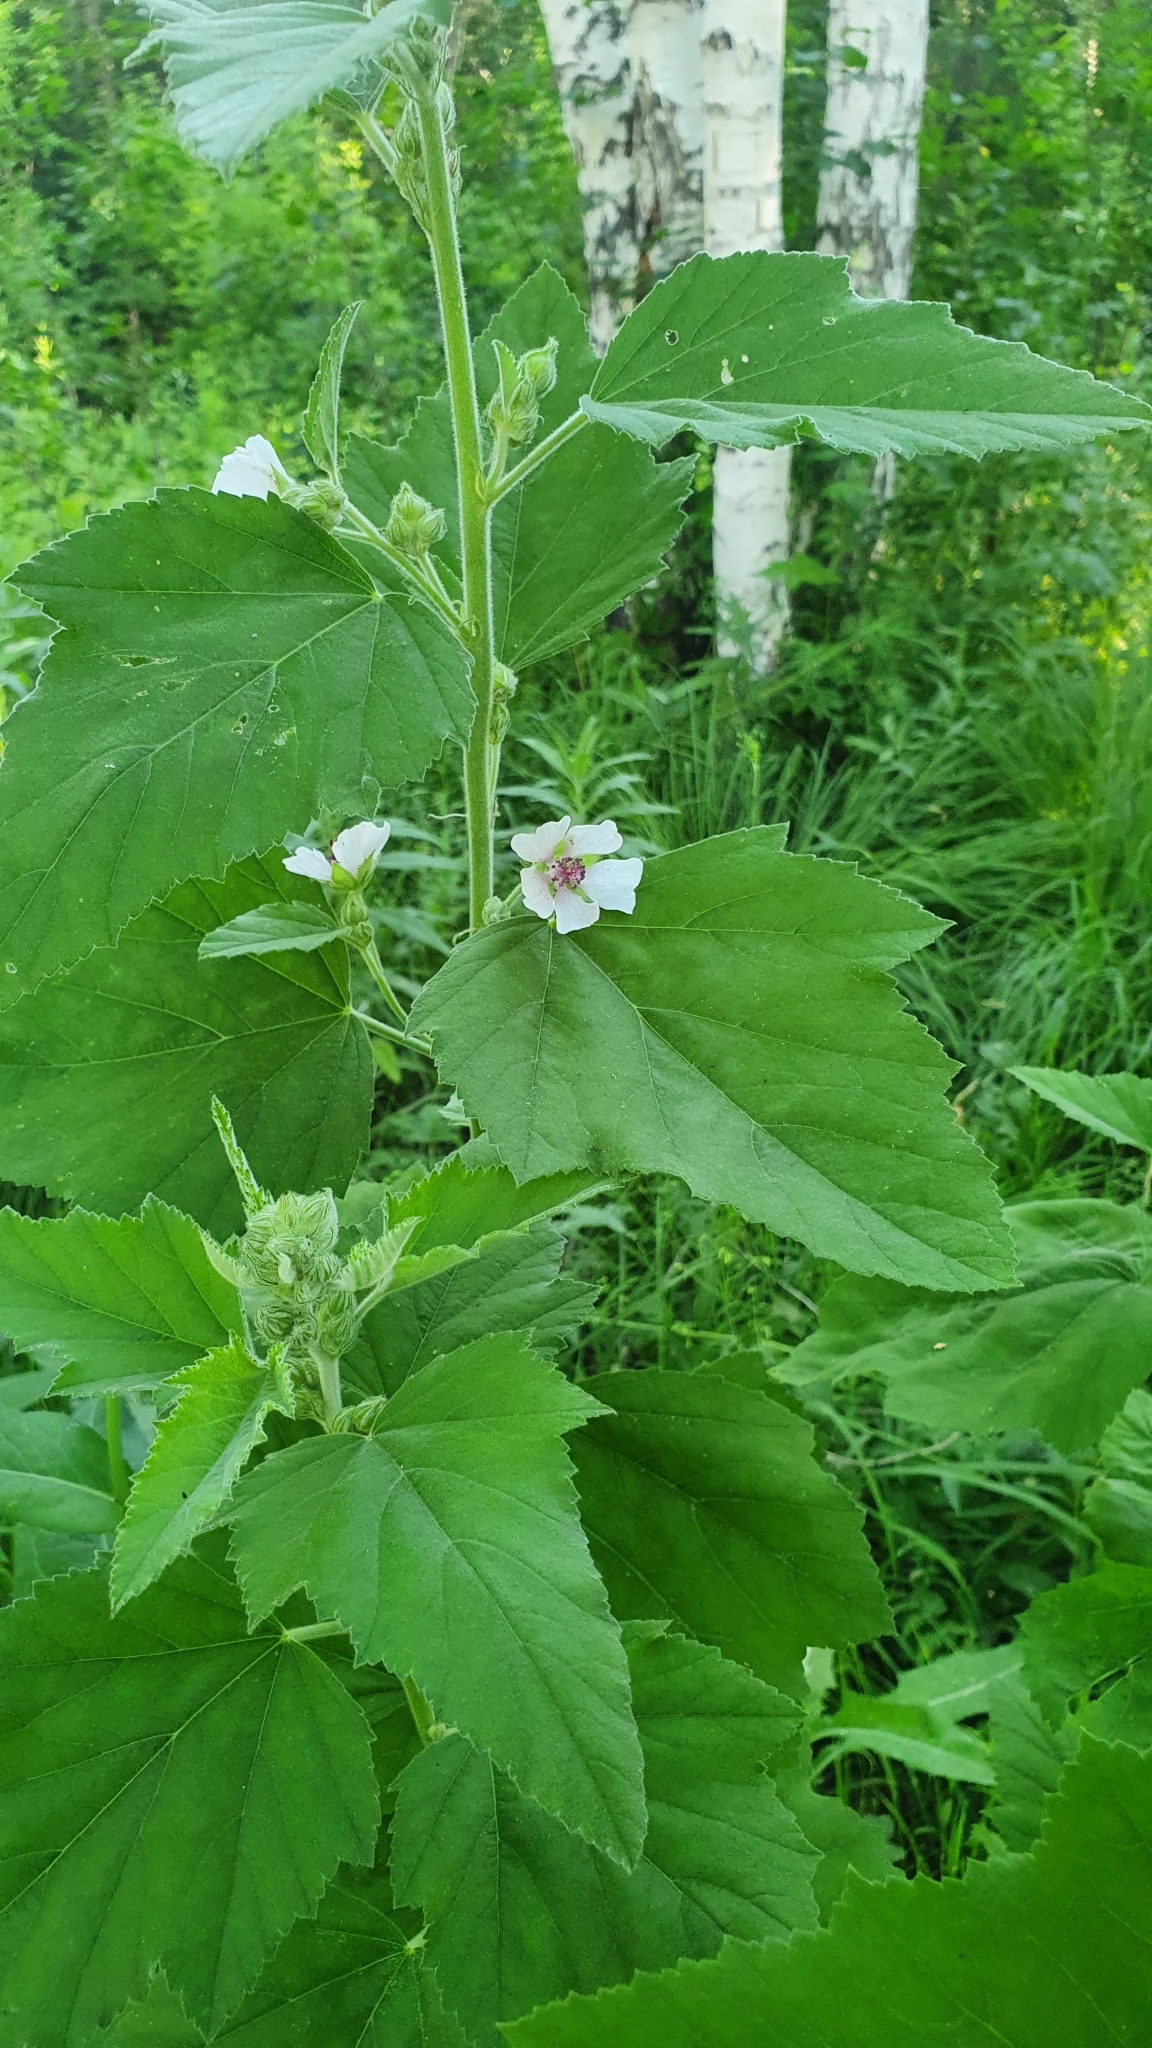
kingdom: Plantae
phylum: Tracheophyta
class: Magnoliopsida
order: Malvales
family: Malvaceae
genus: Althaea
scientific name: Althaea officinalis
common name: Marsh-mallow
